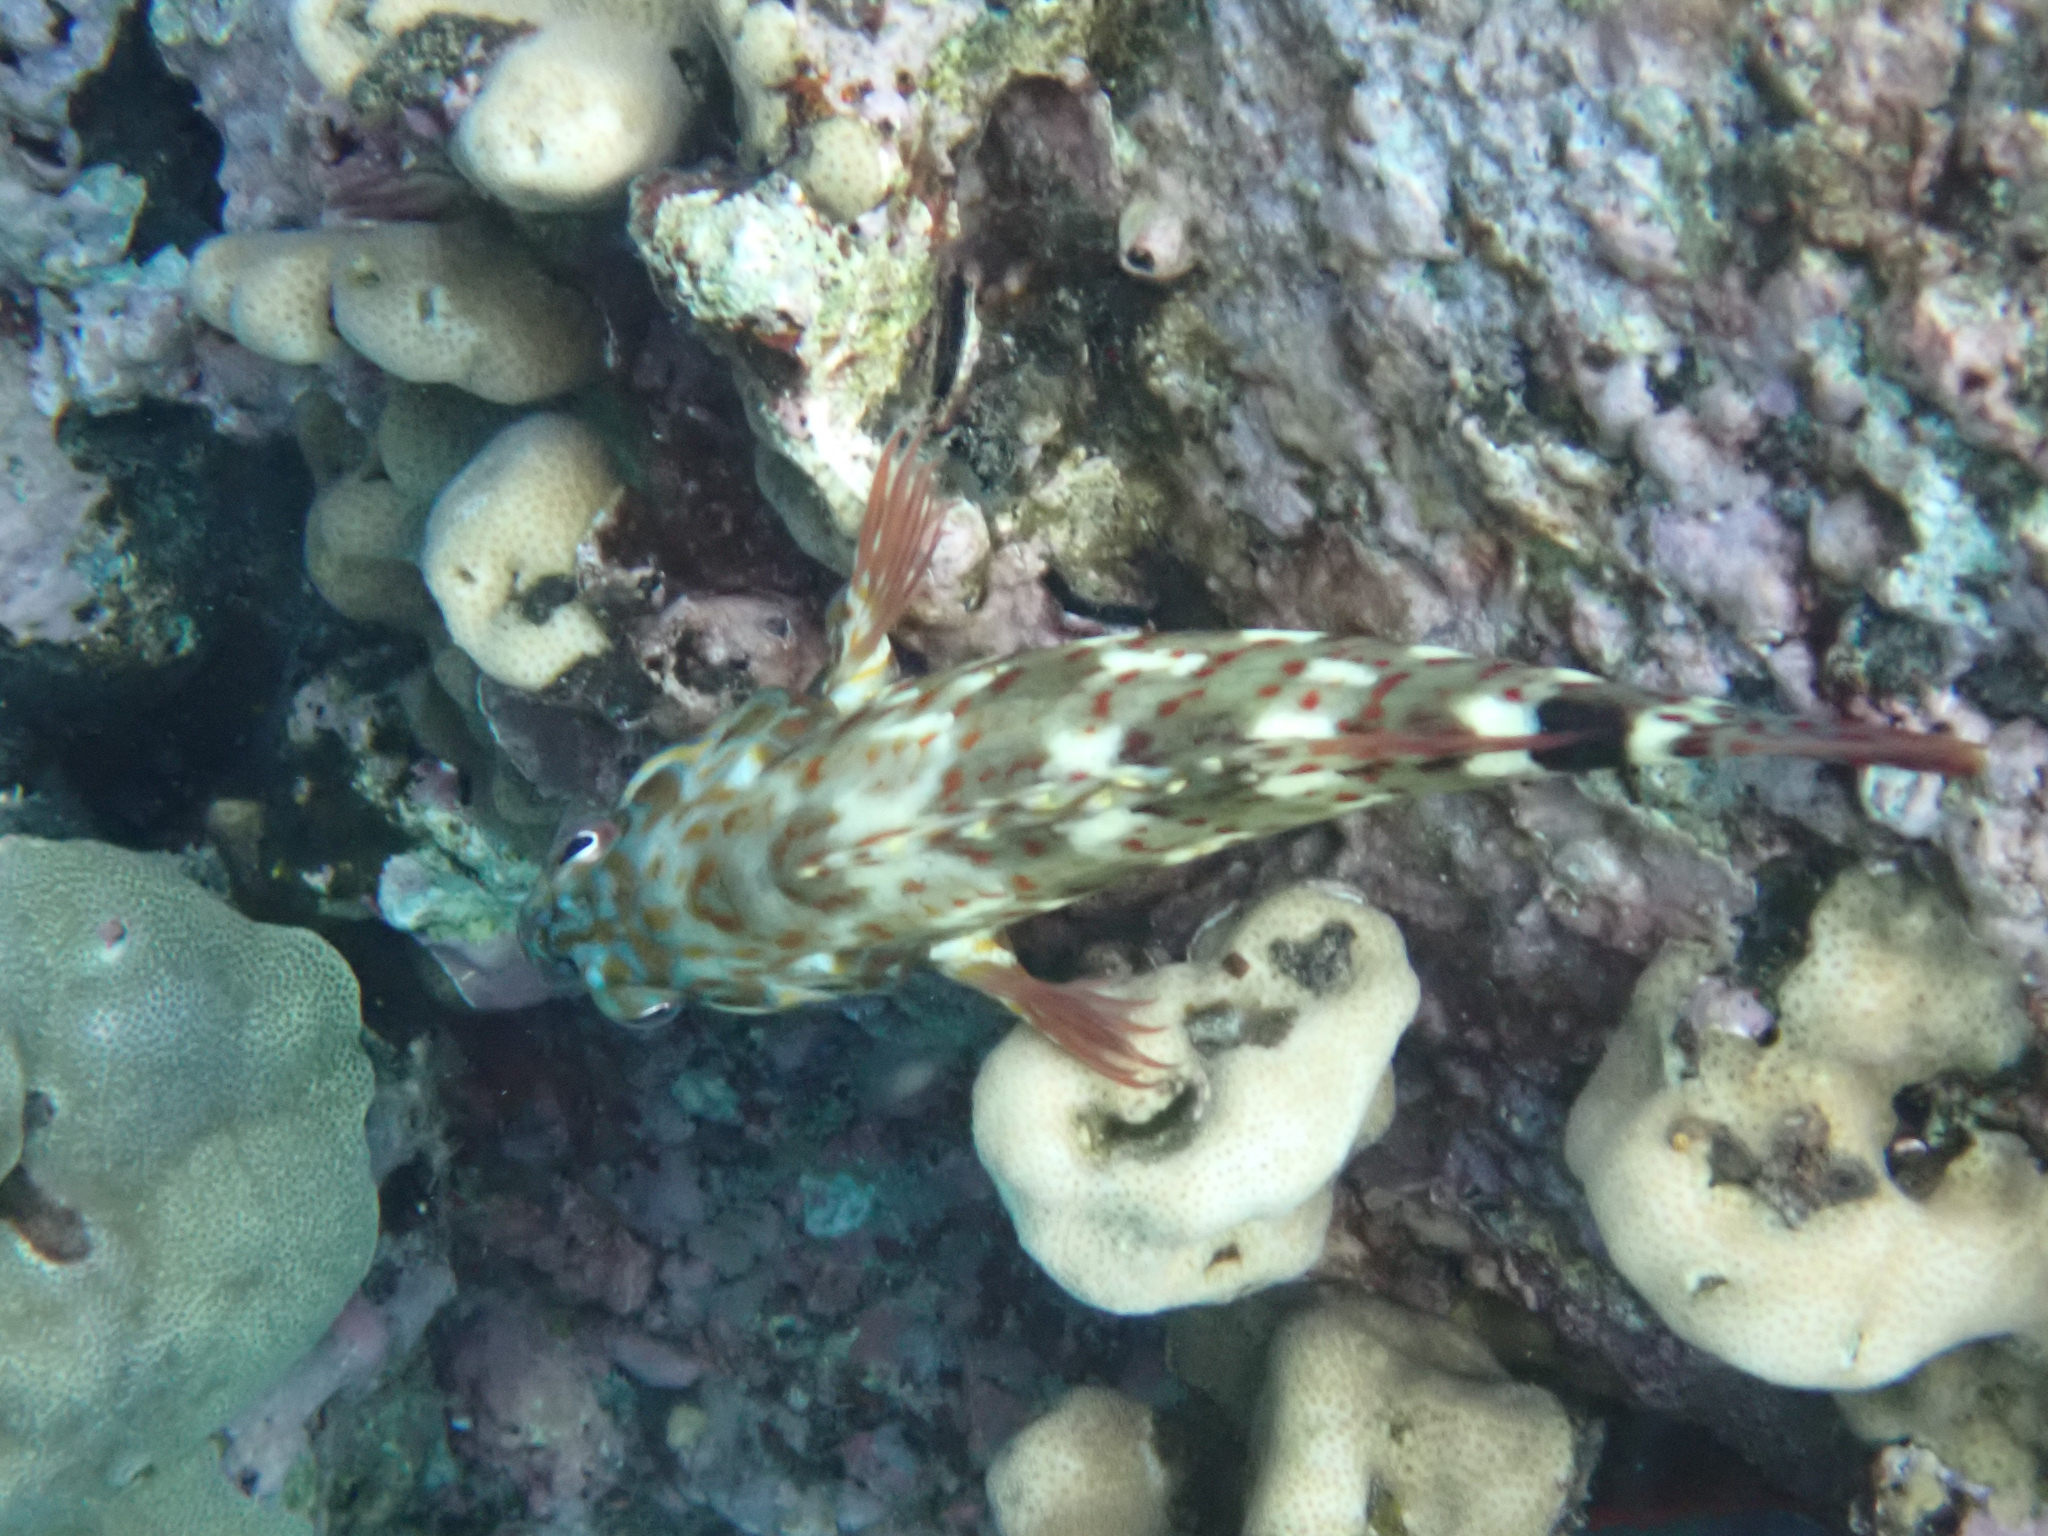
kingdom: Animalia
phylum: Chordata
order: Perciformes
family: Cirrhitidae
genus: Cirrhitus
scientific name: Cirrhitus pinnulatus
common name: Stocky hawkfish
